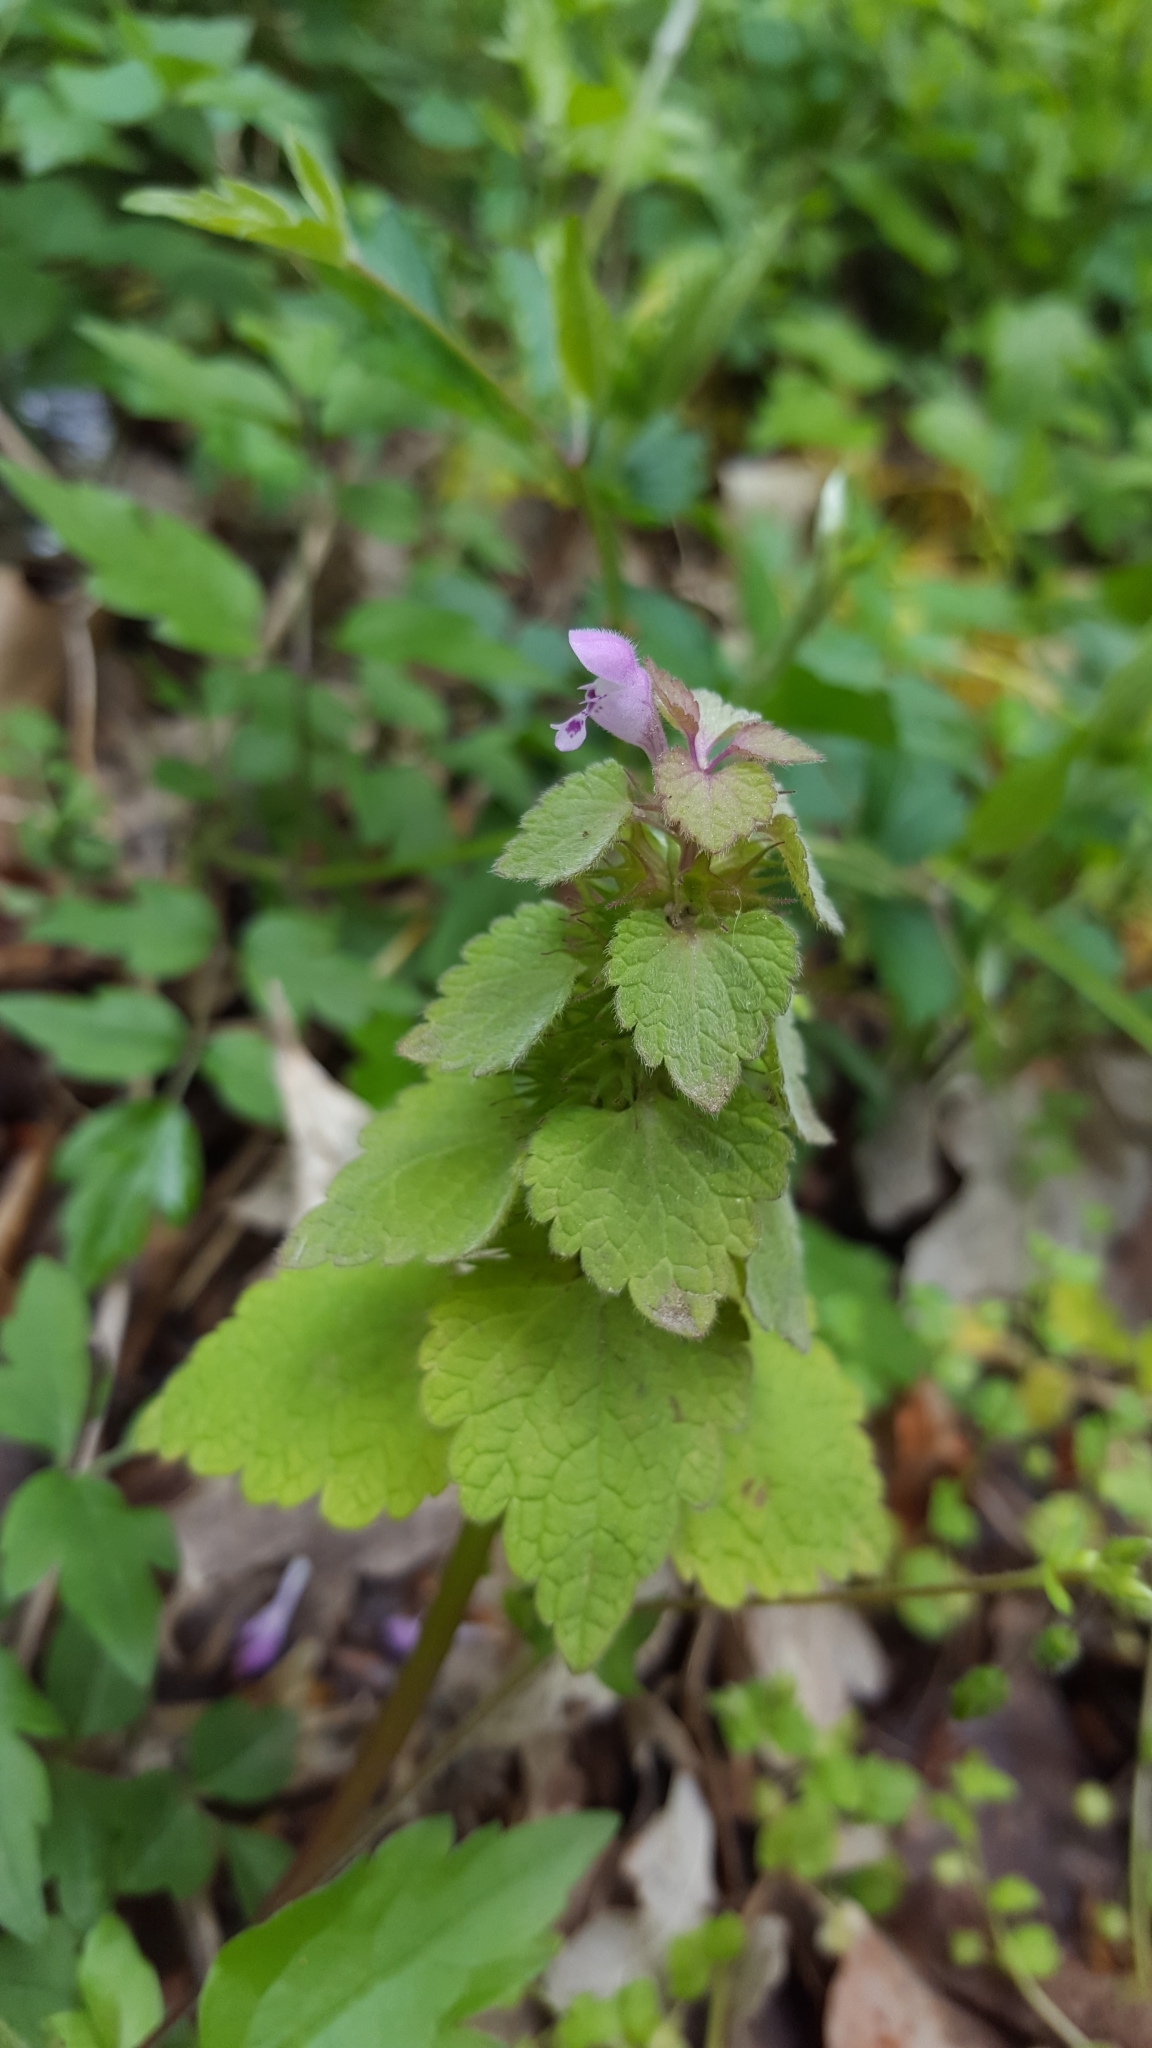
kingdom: Plantae
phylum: Tracheophyta
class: Magnoliopsida
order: Lamiales
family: Lamiaceae
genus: Lamium
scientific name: Lamium purpureum
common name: Red dead-nettle
